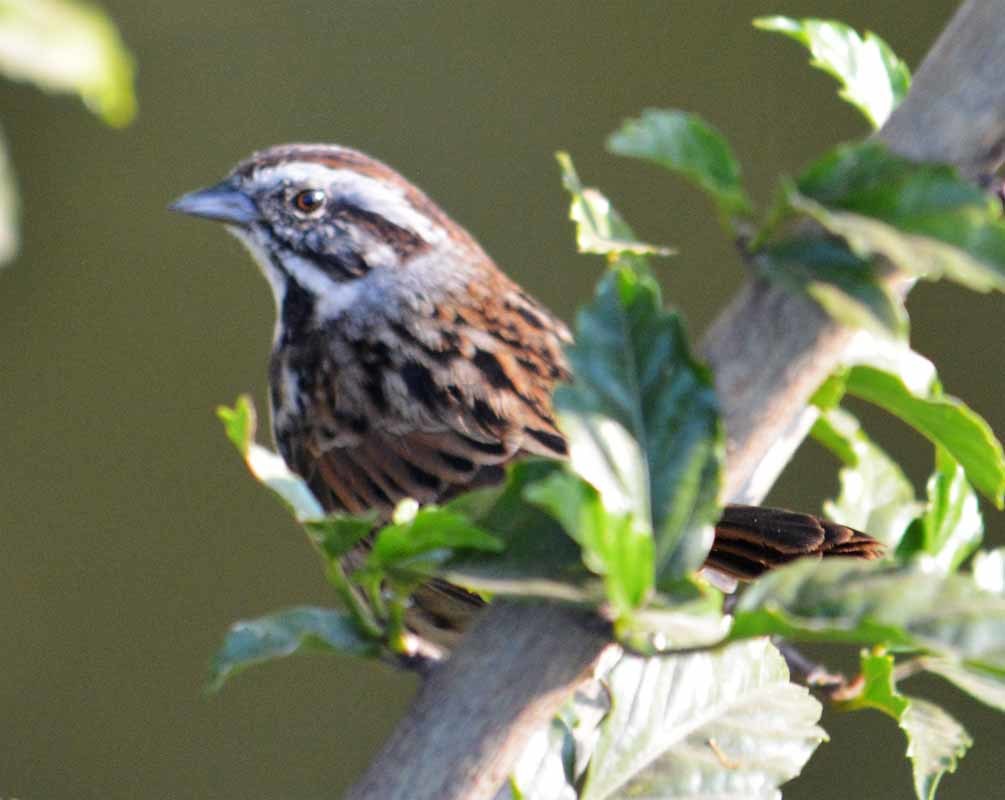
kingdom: Animalia
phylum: Chordata
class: Aves
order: Passeriformes
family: Passerellidae
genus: Melospiza
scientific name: Melospiza melodia
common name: Song sparrow
